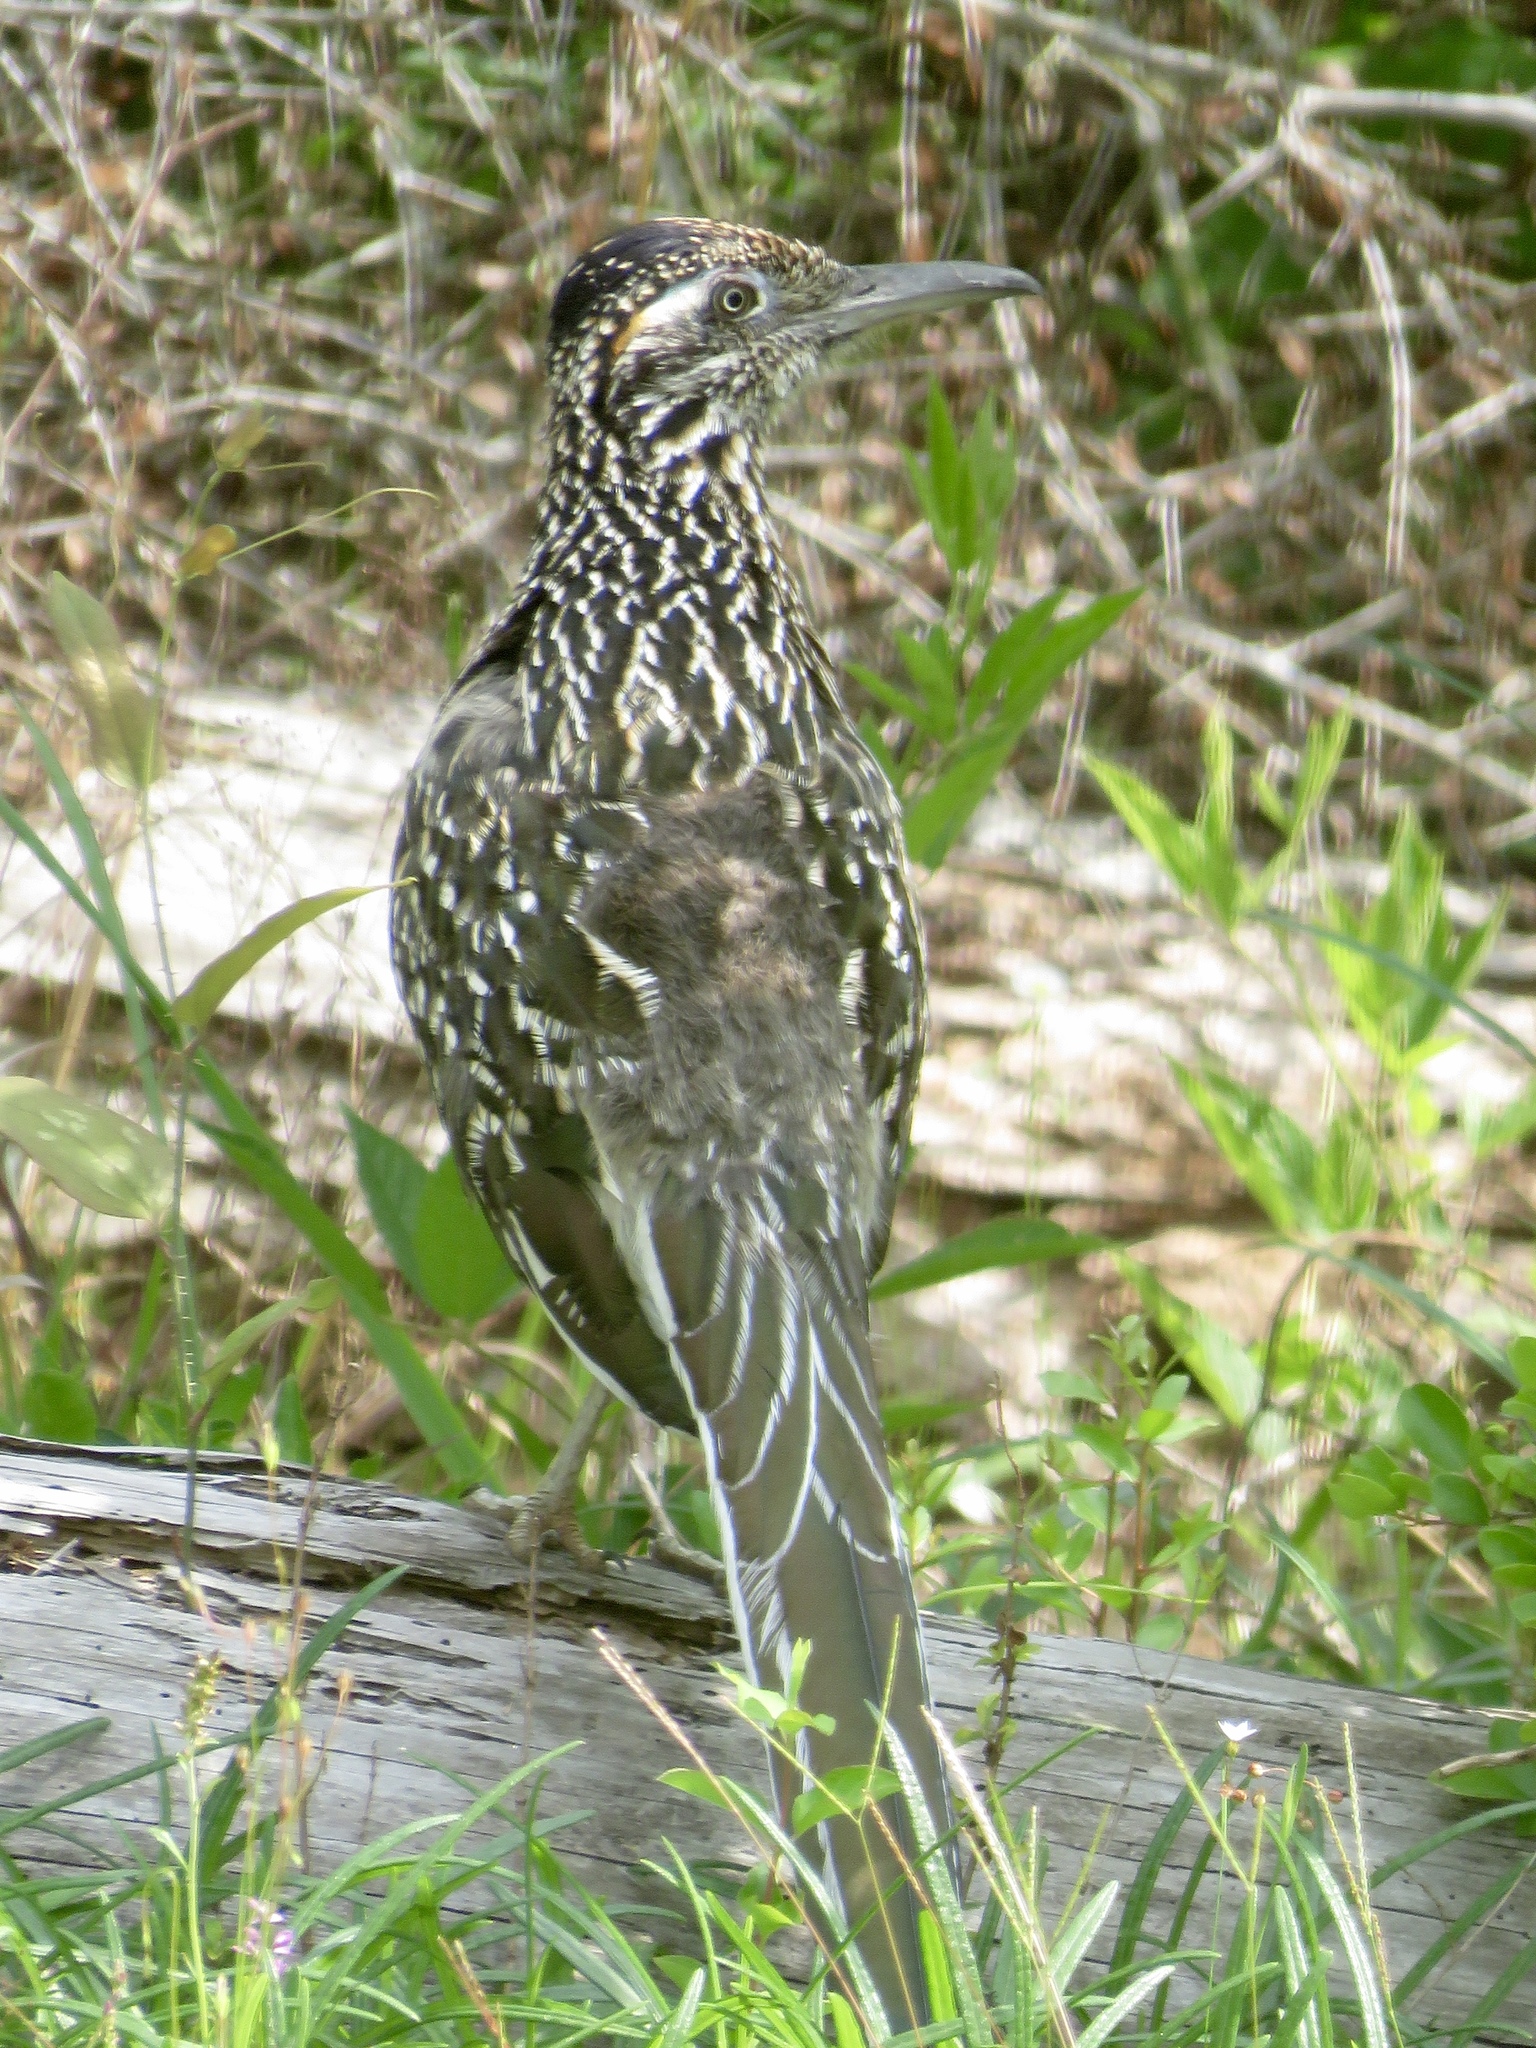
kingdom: Animalia
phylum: Chordata
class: Aves
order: Cuculiformes
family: Cuculidae
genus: Geococcyx
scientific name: Geococcyx californianus
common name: Greater roadrunner
